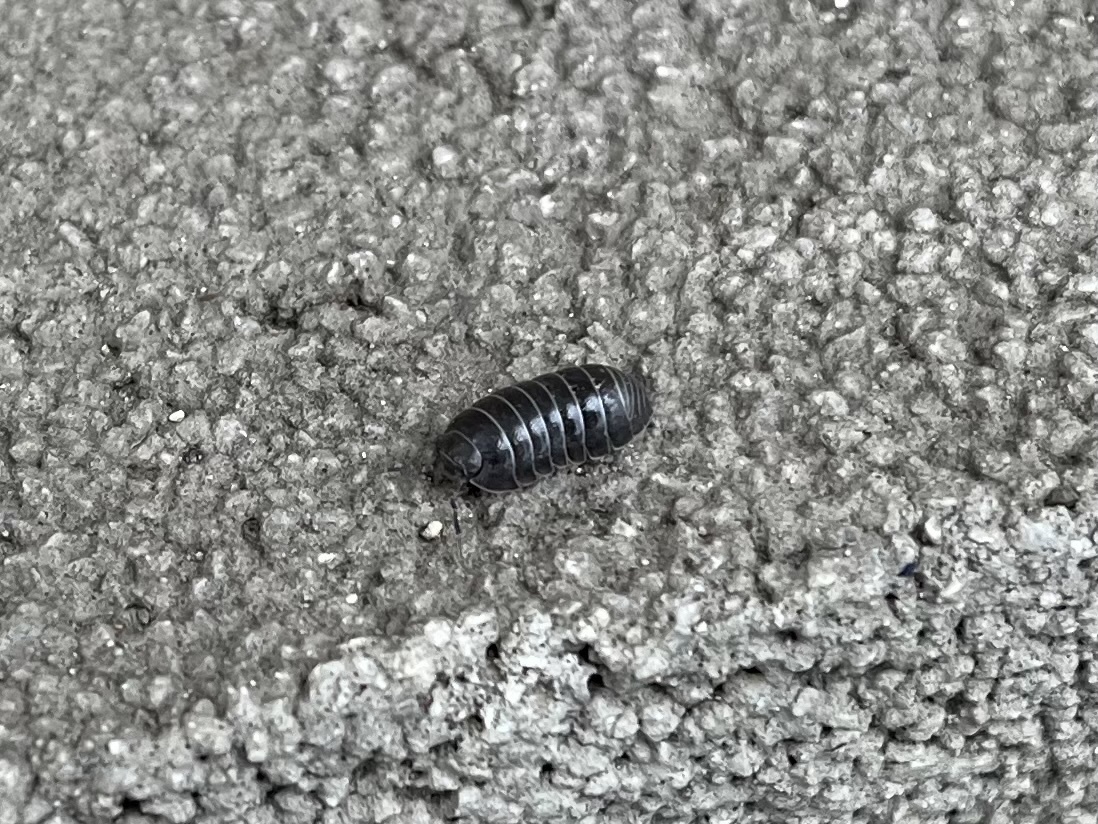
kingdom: Animalia
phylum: Arthropoda
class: Malacostraca
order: Isopoda
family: Armadillidiidae
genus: Armadillidium
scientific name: Armadillidium vulgare
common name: Common pill woodlouse
